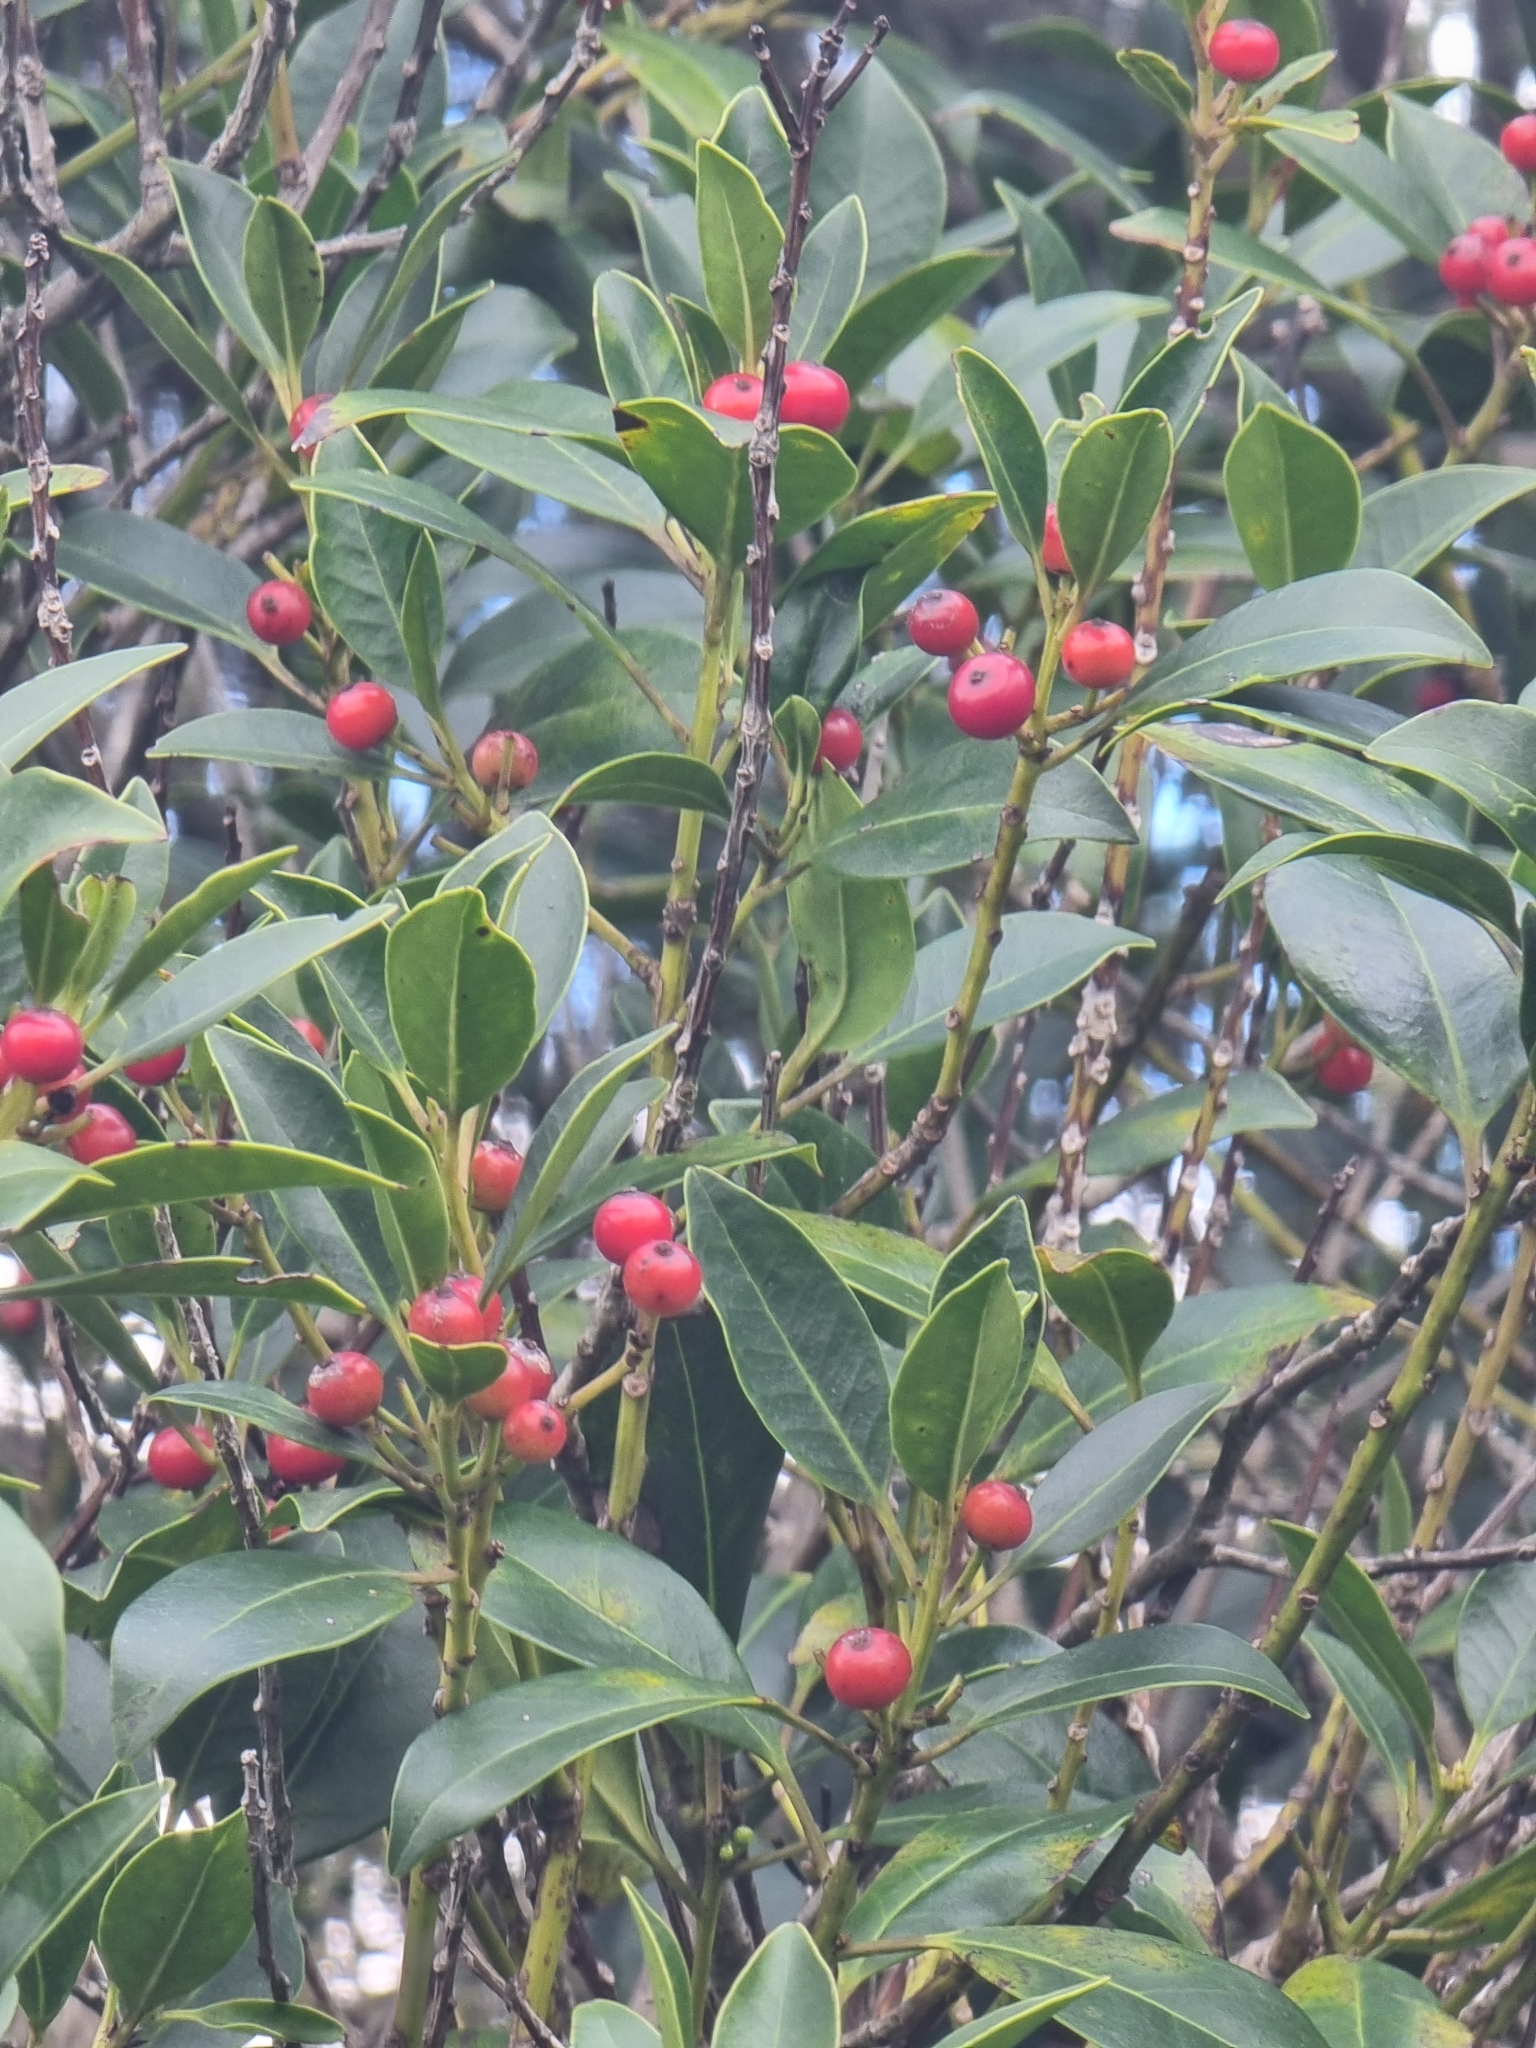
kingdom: Plantae
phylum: Tracheophyta
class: Magnoliopsida
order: Aquifoliales
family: Aquifoliaceae
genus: Ilex
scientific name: Ilex canariensis
